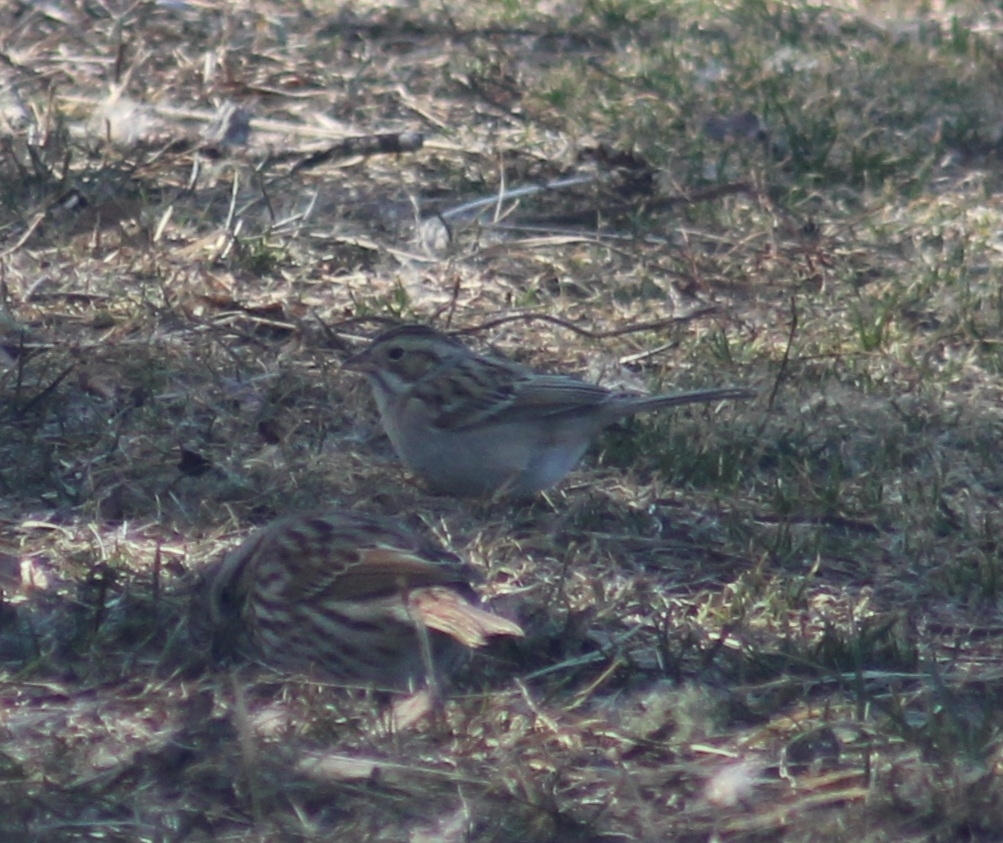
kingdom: Animalia
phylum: Chordata
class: Aves
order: Passeriformes
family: Passerellidae
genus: Spizella
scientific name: Spizella pallida
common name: Clay-colored sparrow
